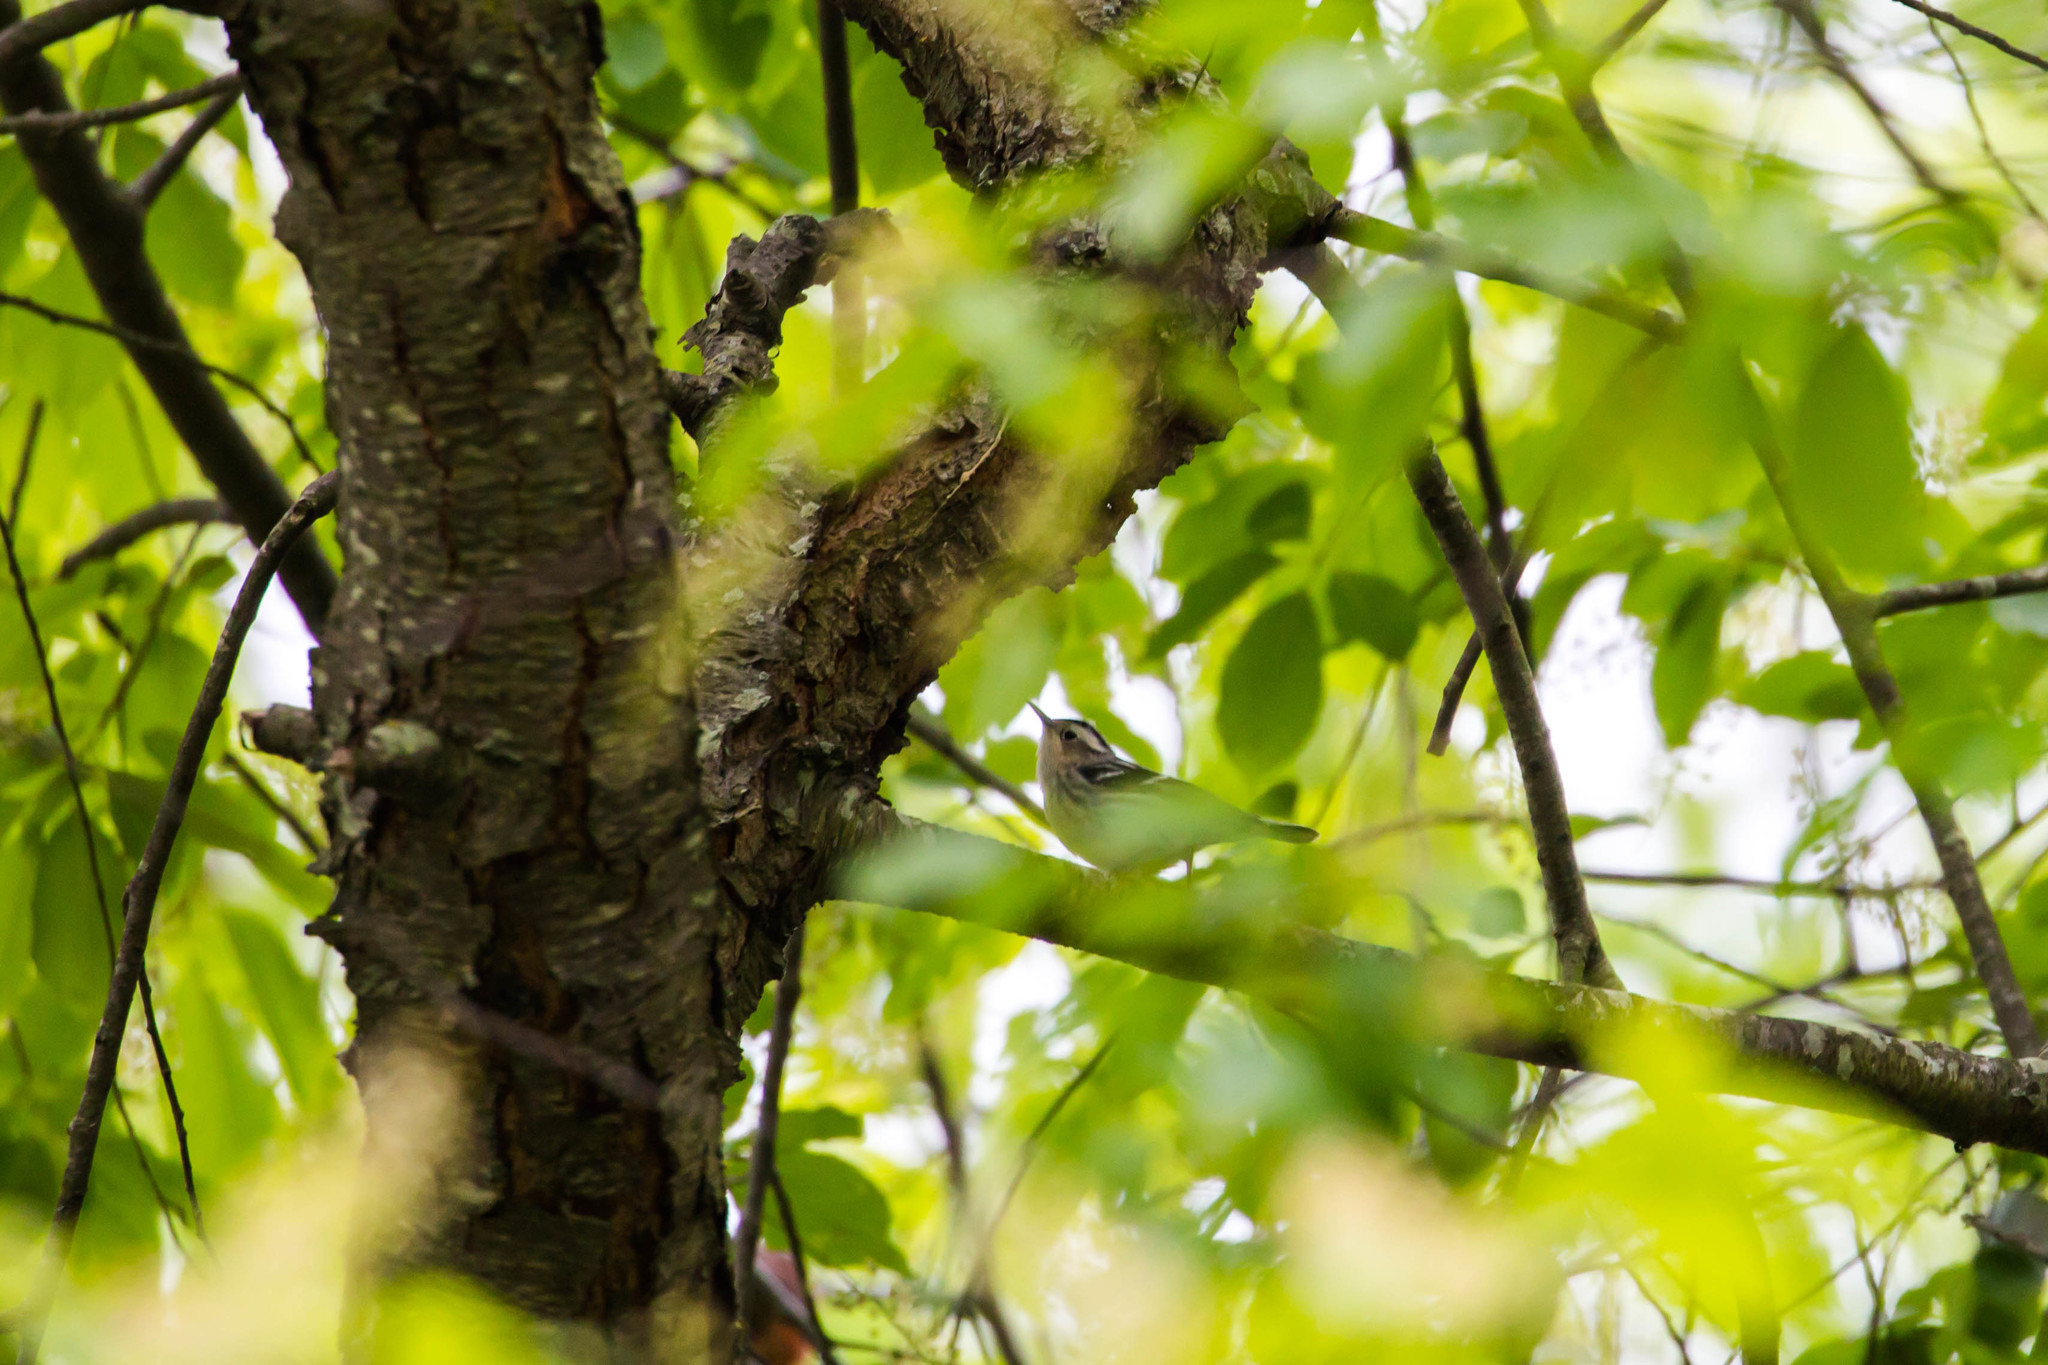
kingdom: Animalia
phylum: Chordata
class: Aves
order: Passeriformes
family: Parulidae
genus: Mniotilta
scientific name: Mniotilta varia
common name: Black-and-white warbler
